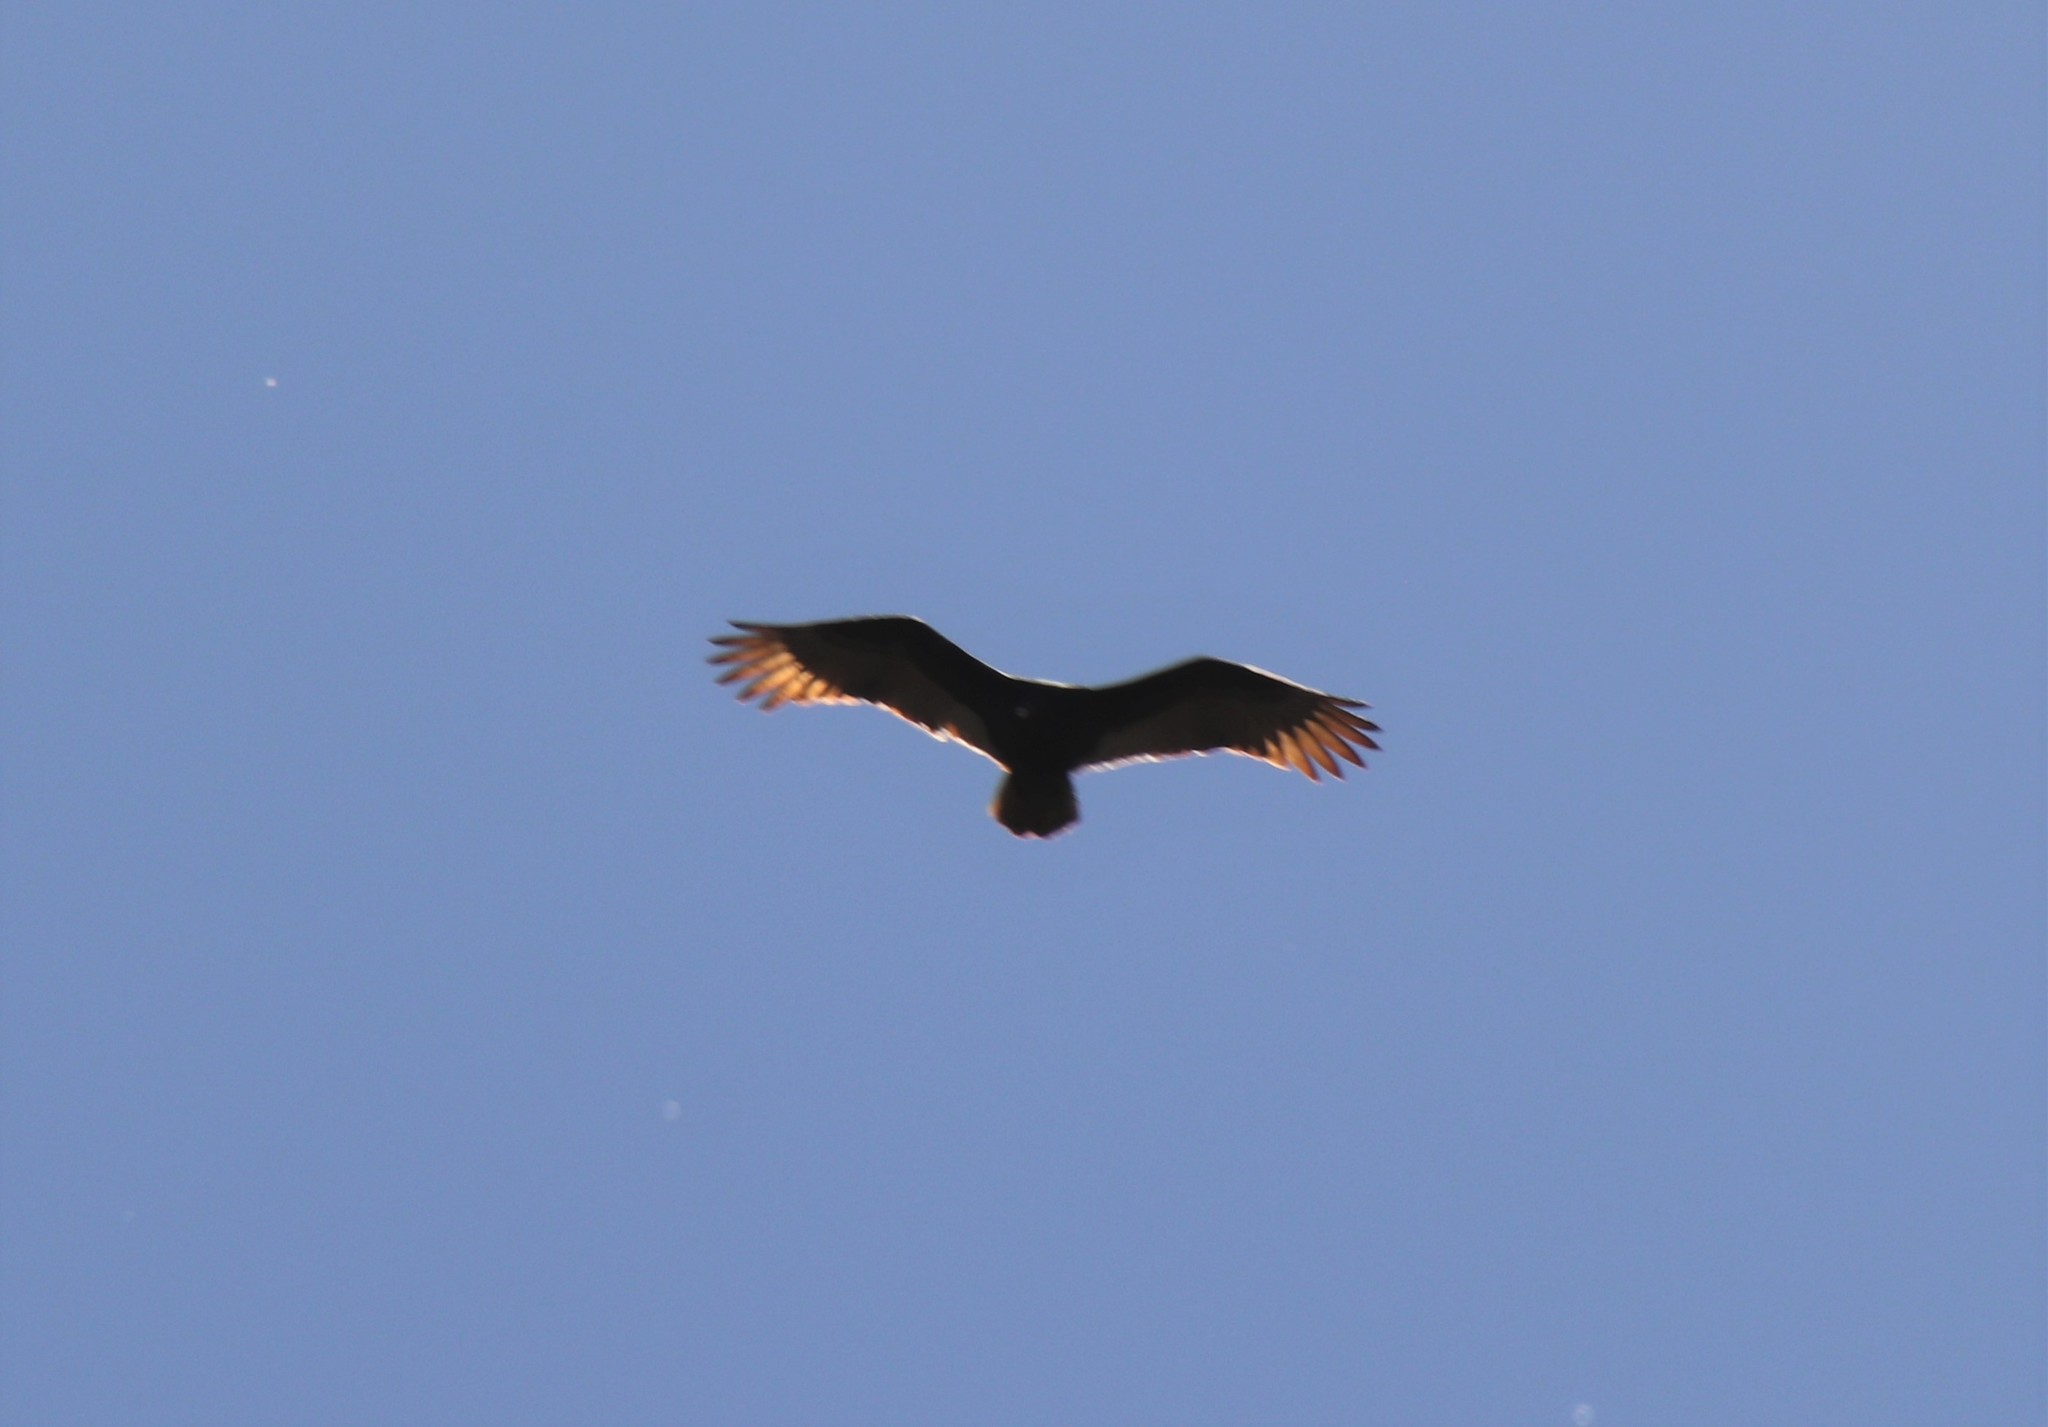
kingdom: Animalia
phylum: Chordata
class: Aves
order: Accipitriformes
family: Cathartidae
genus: Cathartes
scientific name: Cathartes aura
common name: Turkey vulture
